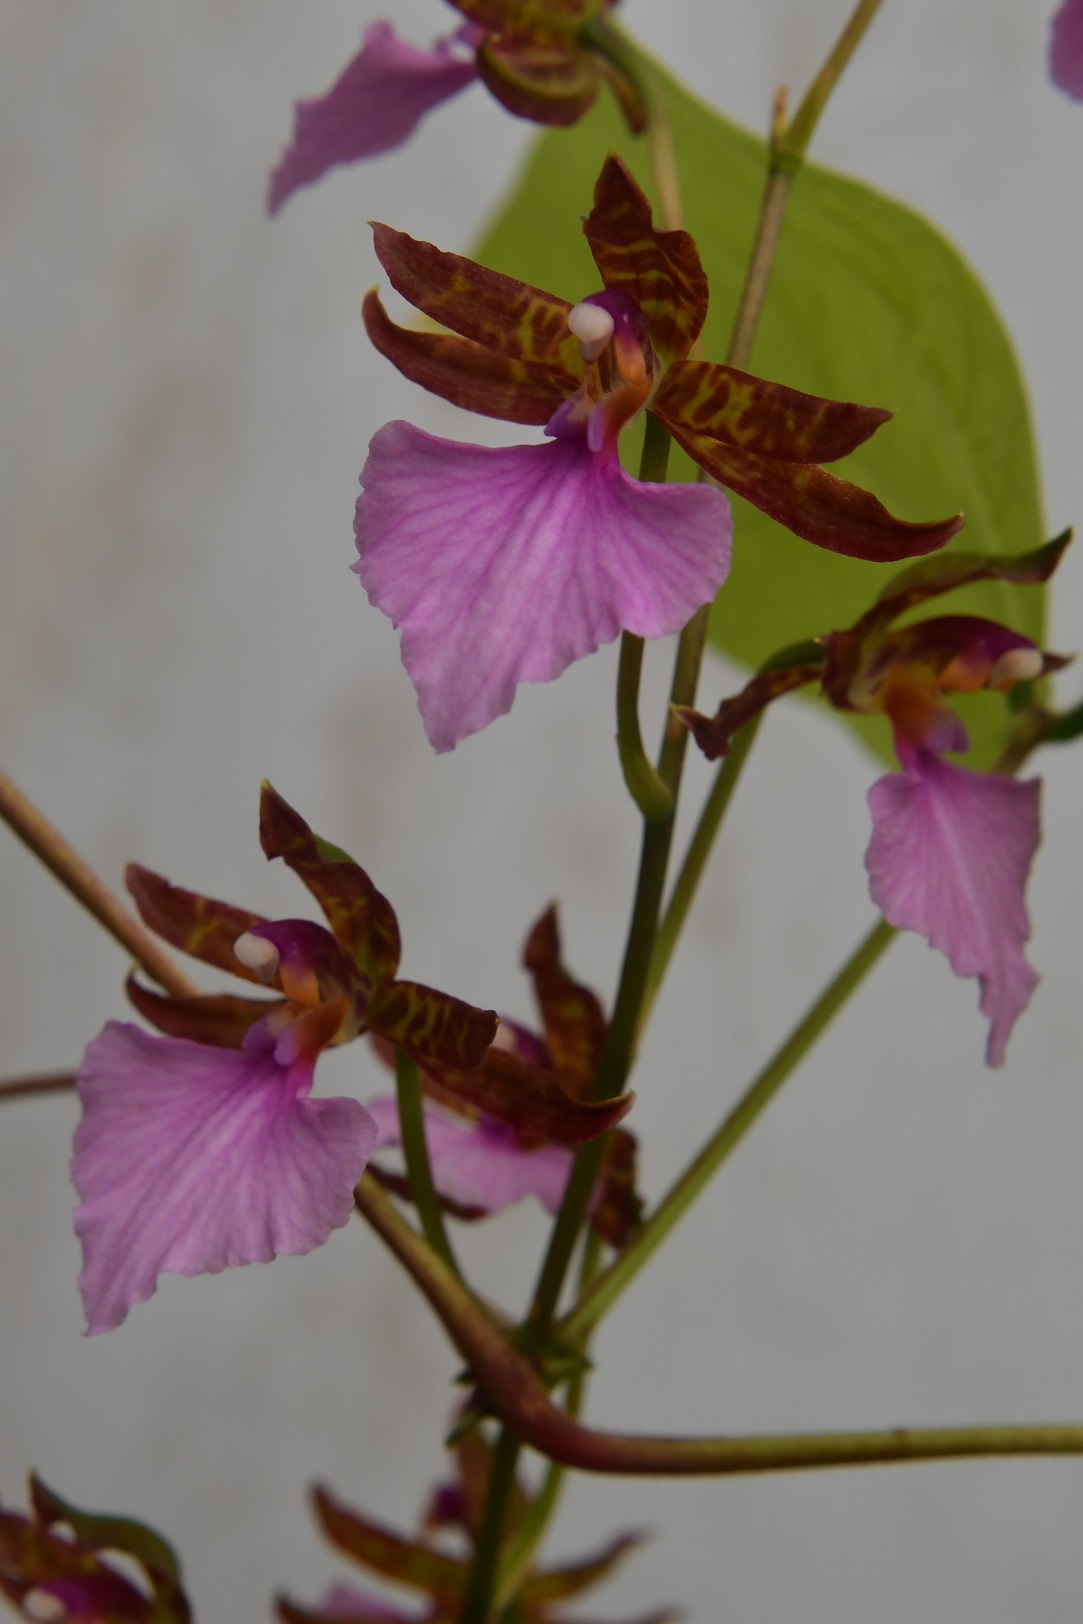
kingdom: Plantae
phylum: Tracheophyta
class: Liliopsida
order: Asparagales
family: Orchidaceae
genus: Rhynchostele
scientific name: Rhynchostele bictoniensis
